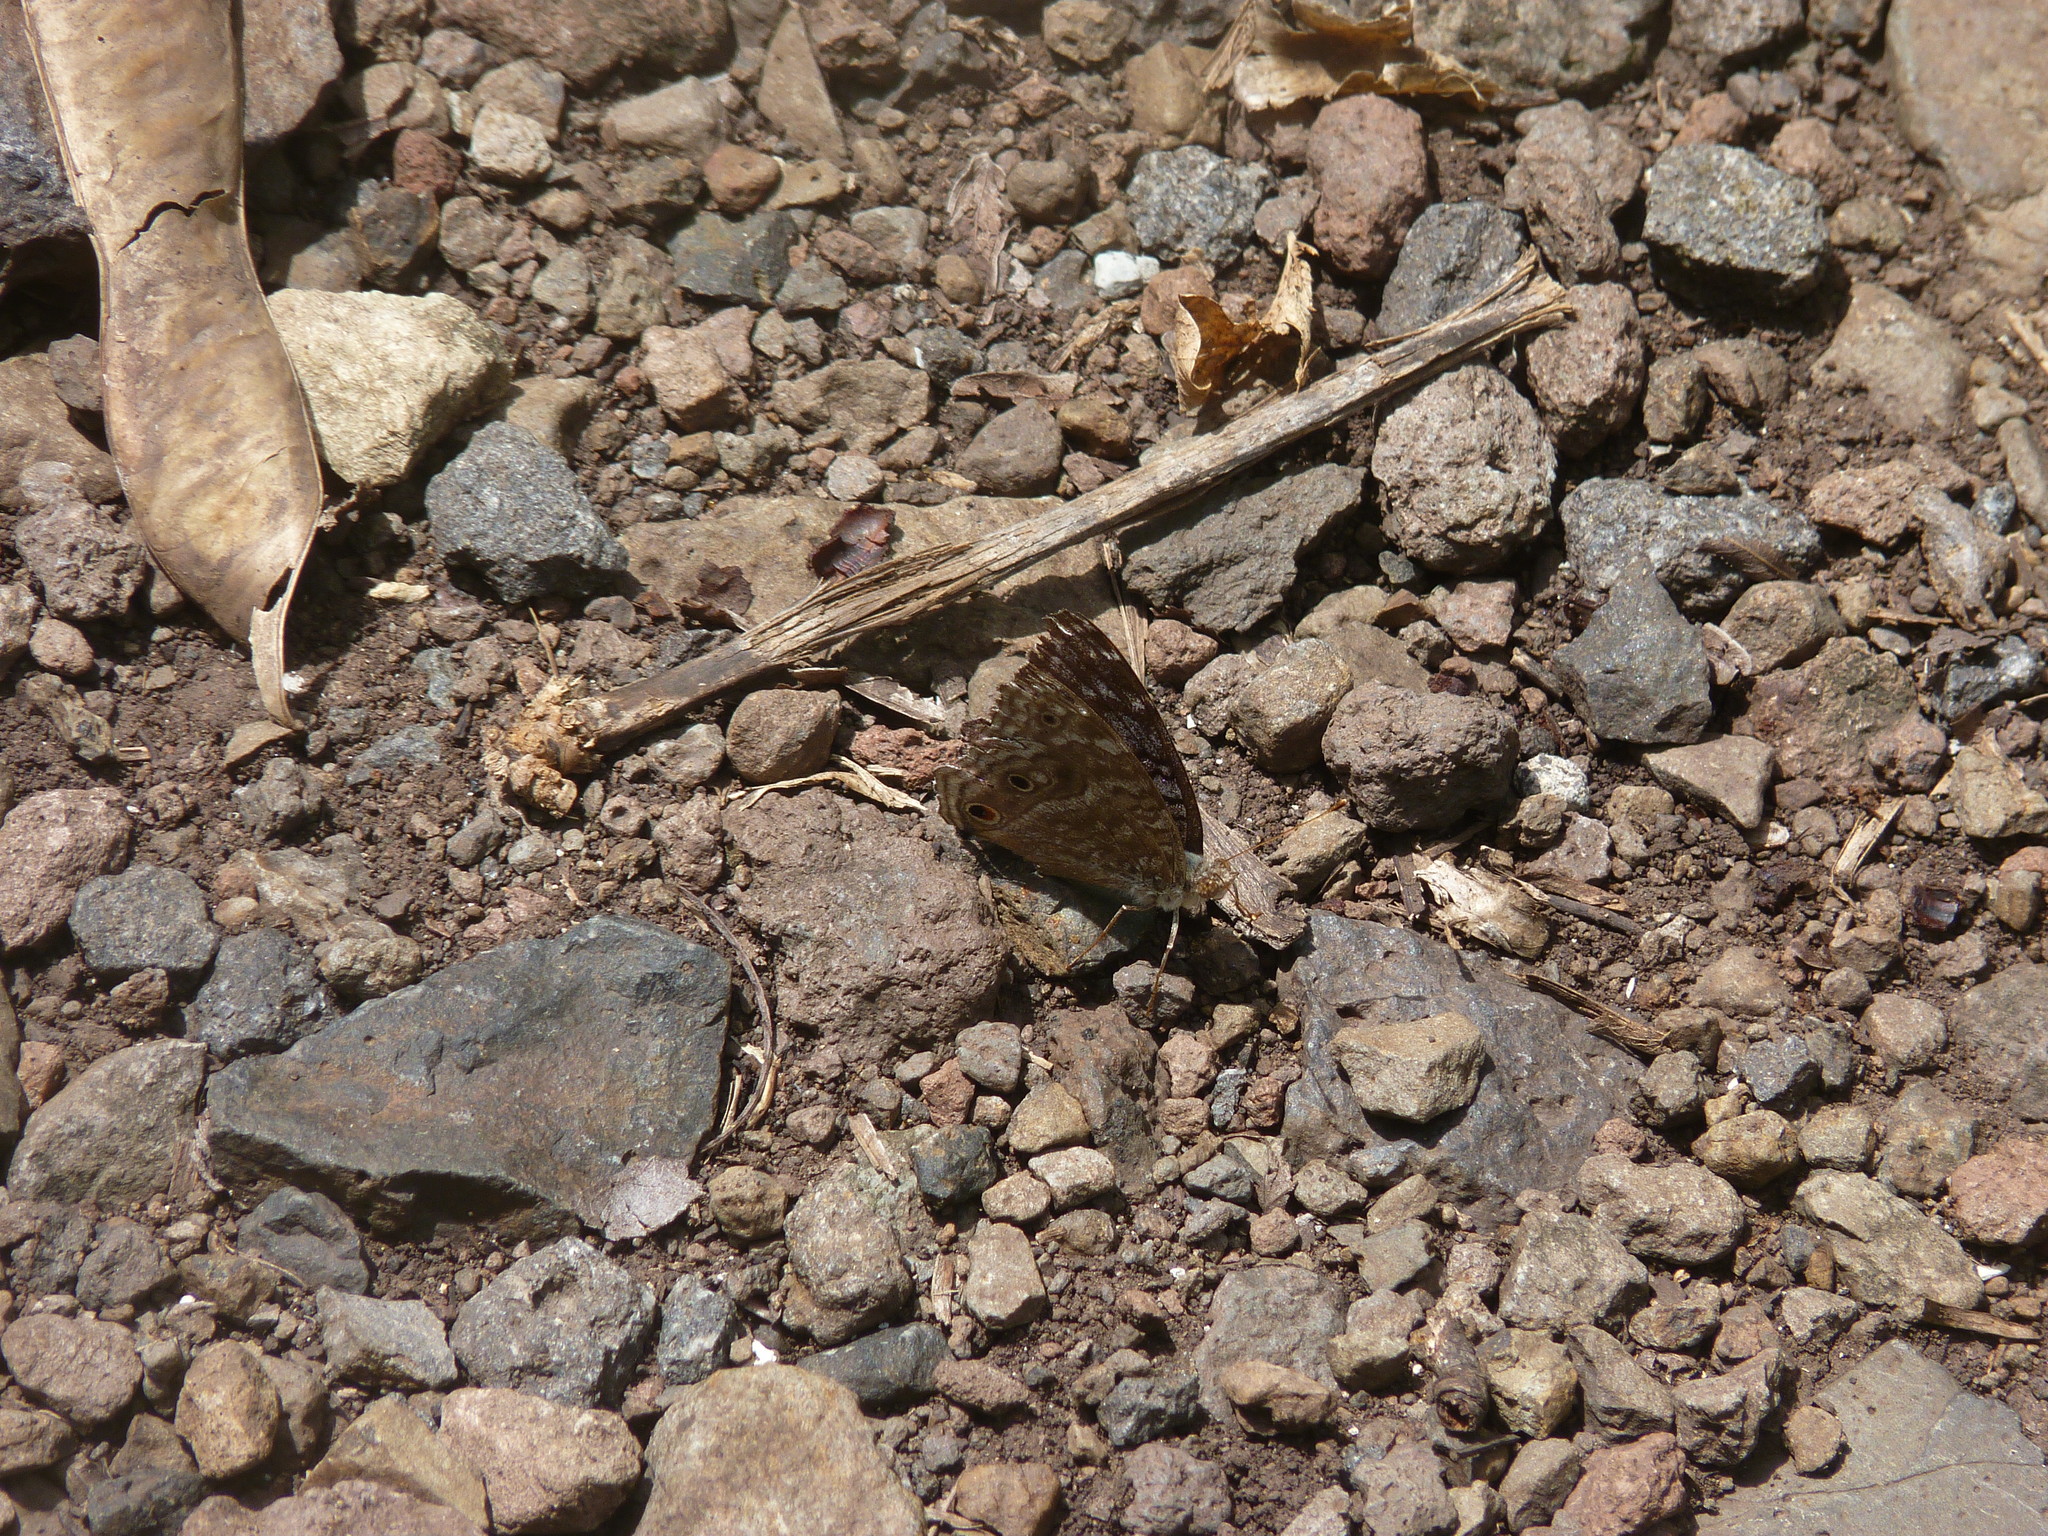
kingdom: Animalia
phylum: Arthropoda
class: Insecta
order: Lepidoptera
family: Nymphalidae
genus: Junonia
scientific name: Junonia rhadama
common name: Royal blue pansy
